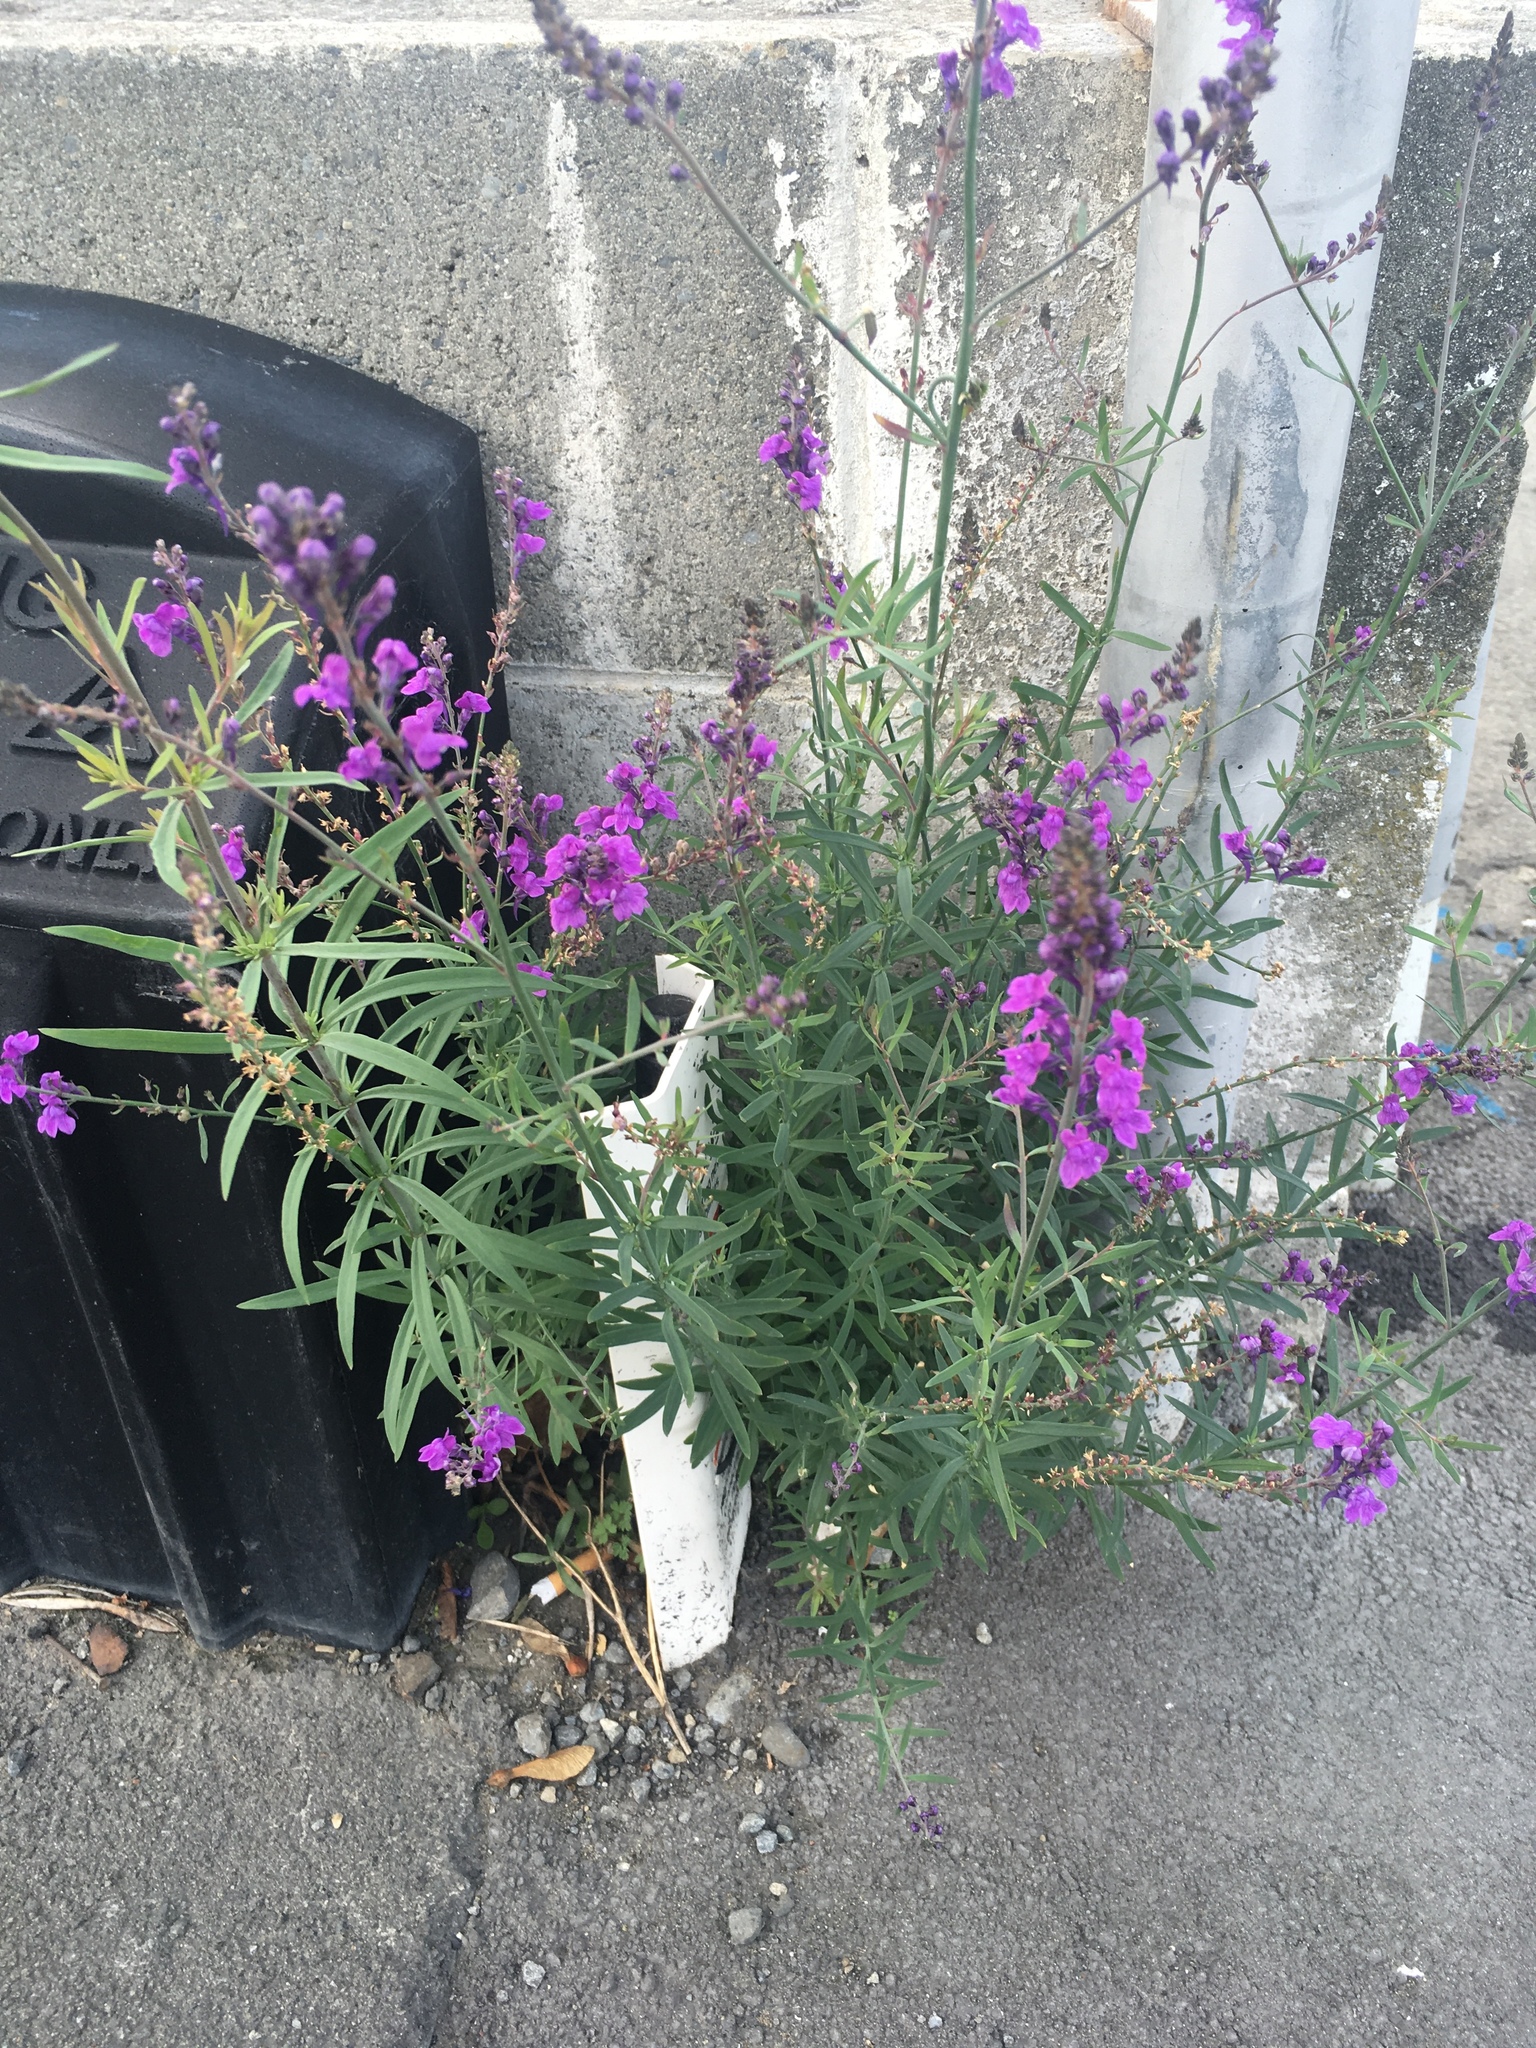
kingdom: Plantae
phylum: Tracheophyta
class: Magnoliopsida
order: Lamiales
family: Plantaginaceae
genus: Linaria
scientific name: Linaria purpurea
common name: Purple toadflax
